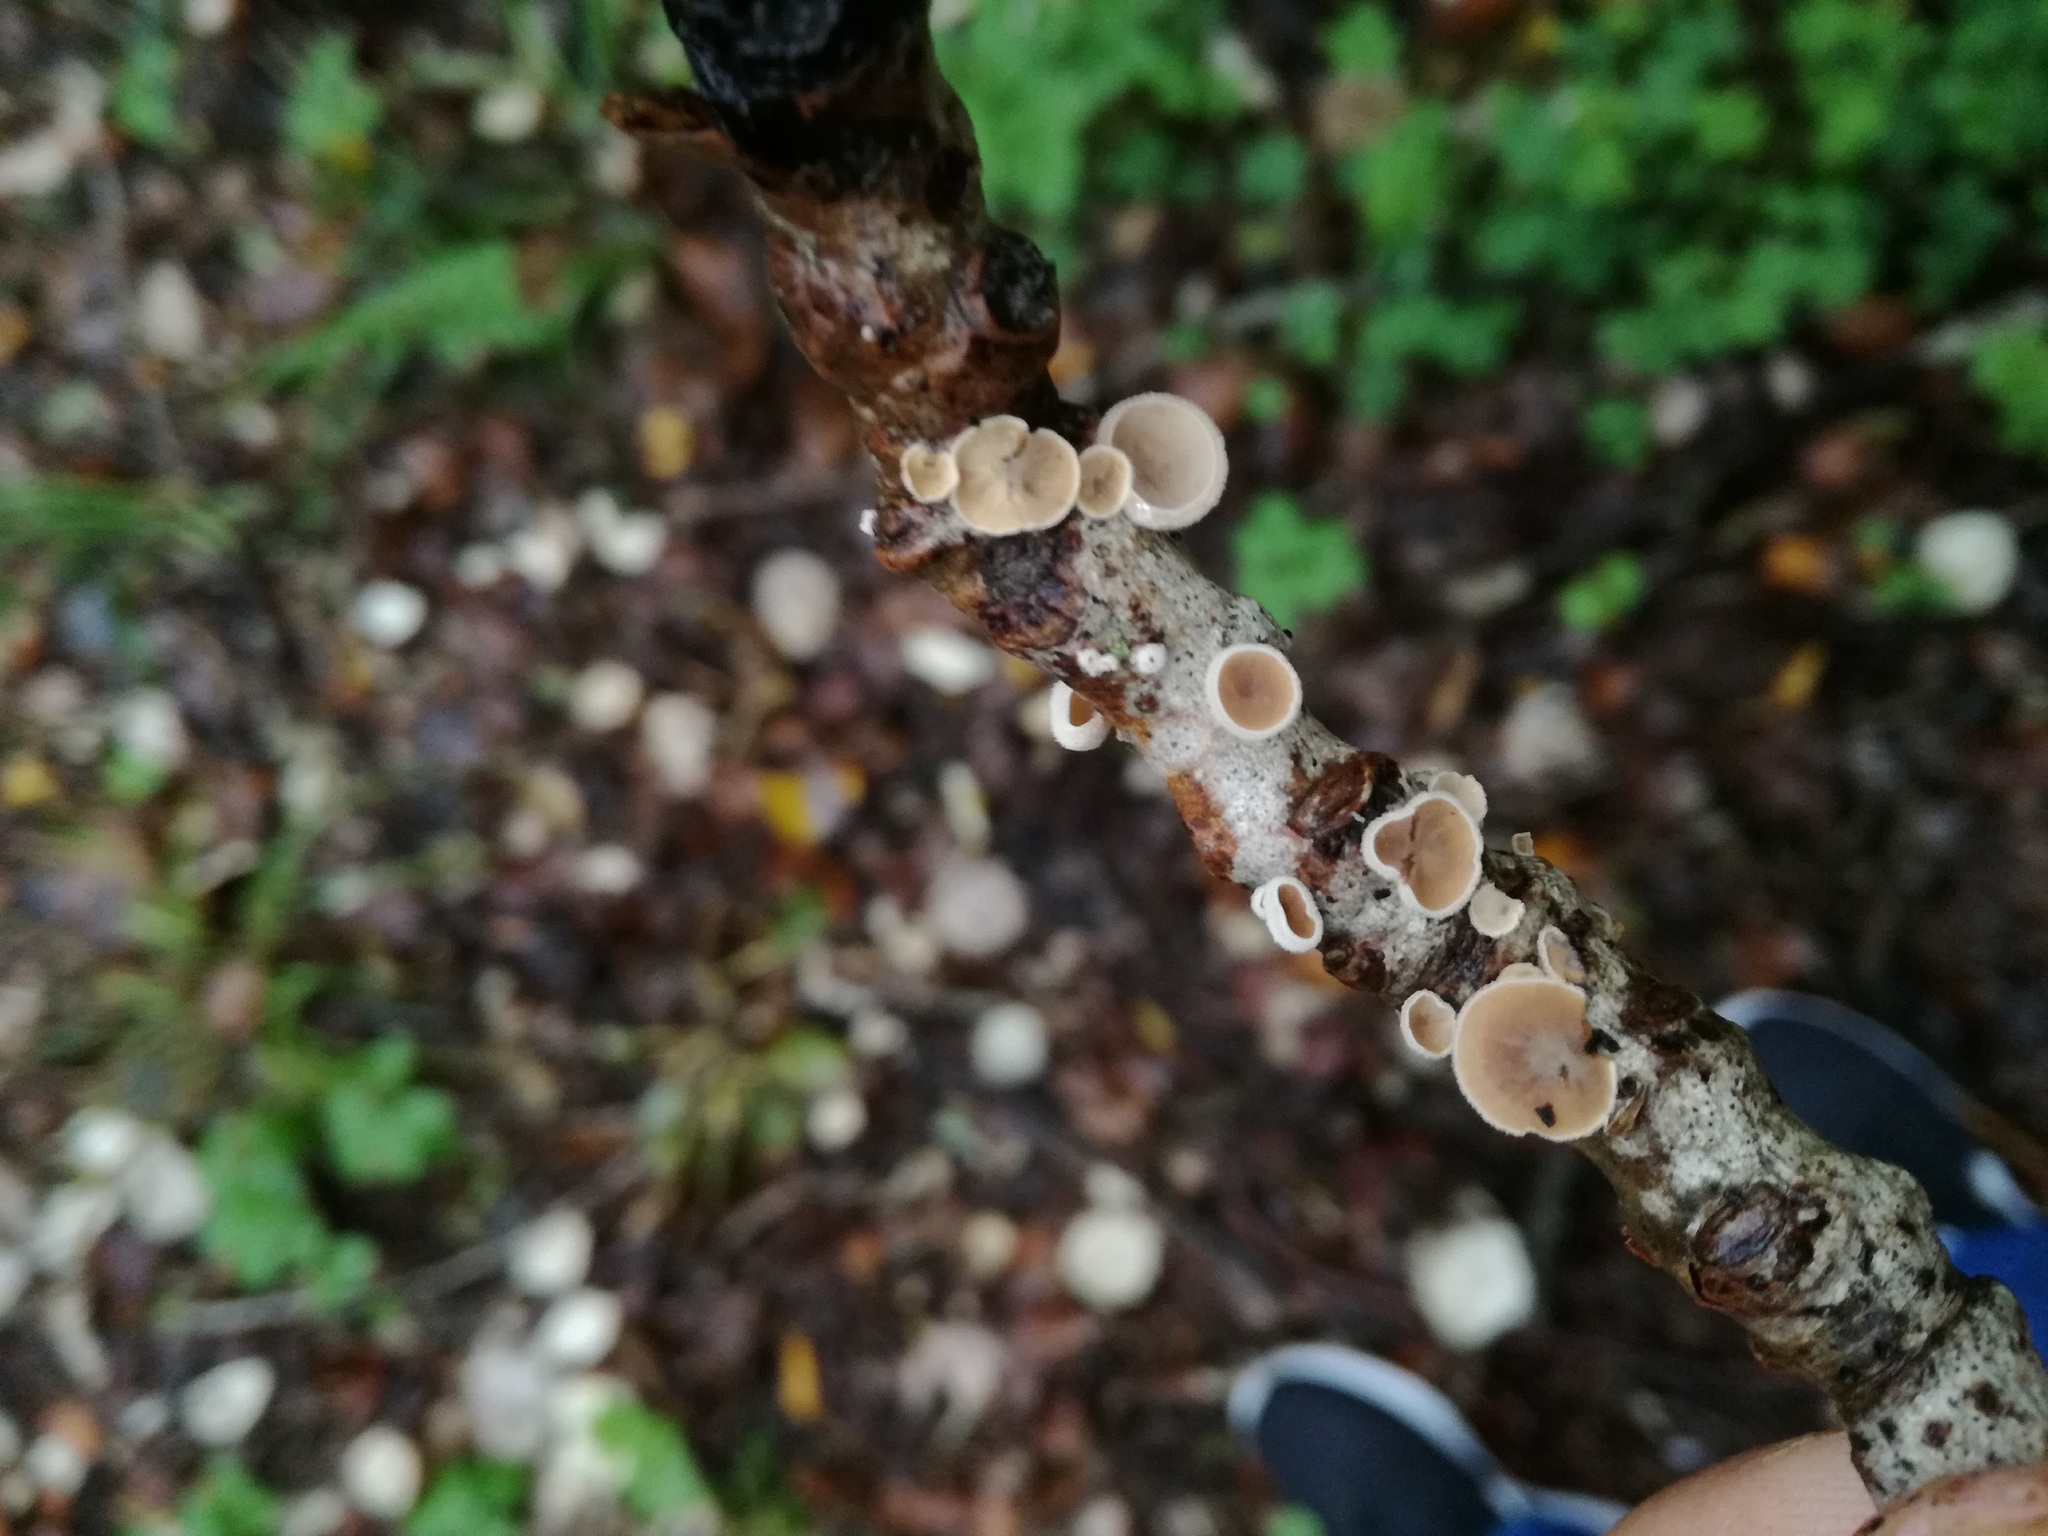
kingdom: Fungi
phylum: Basidiomycota
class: Agaricomycetes
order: Agaricales
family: Schizophyllaceae
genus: Schizophyllum
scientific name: Schizophyllum amplum
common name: Poplar bells
